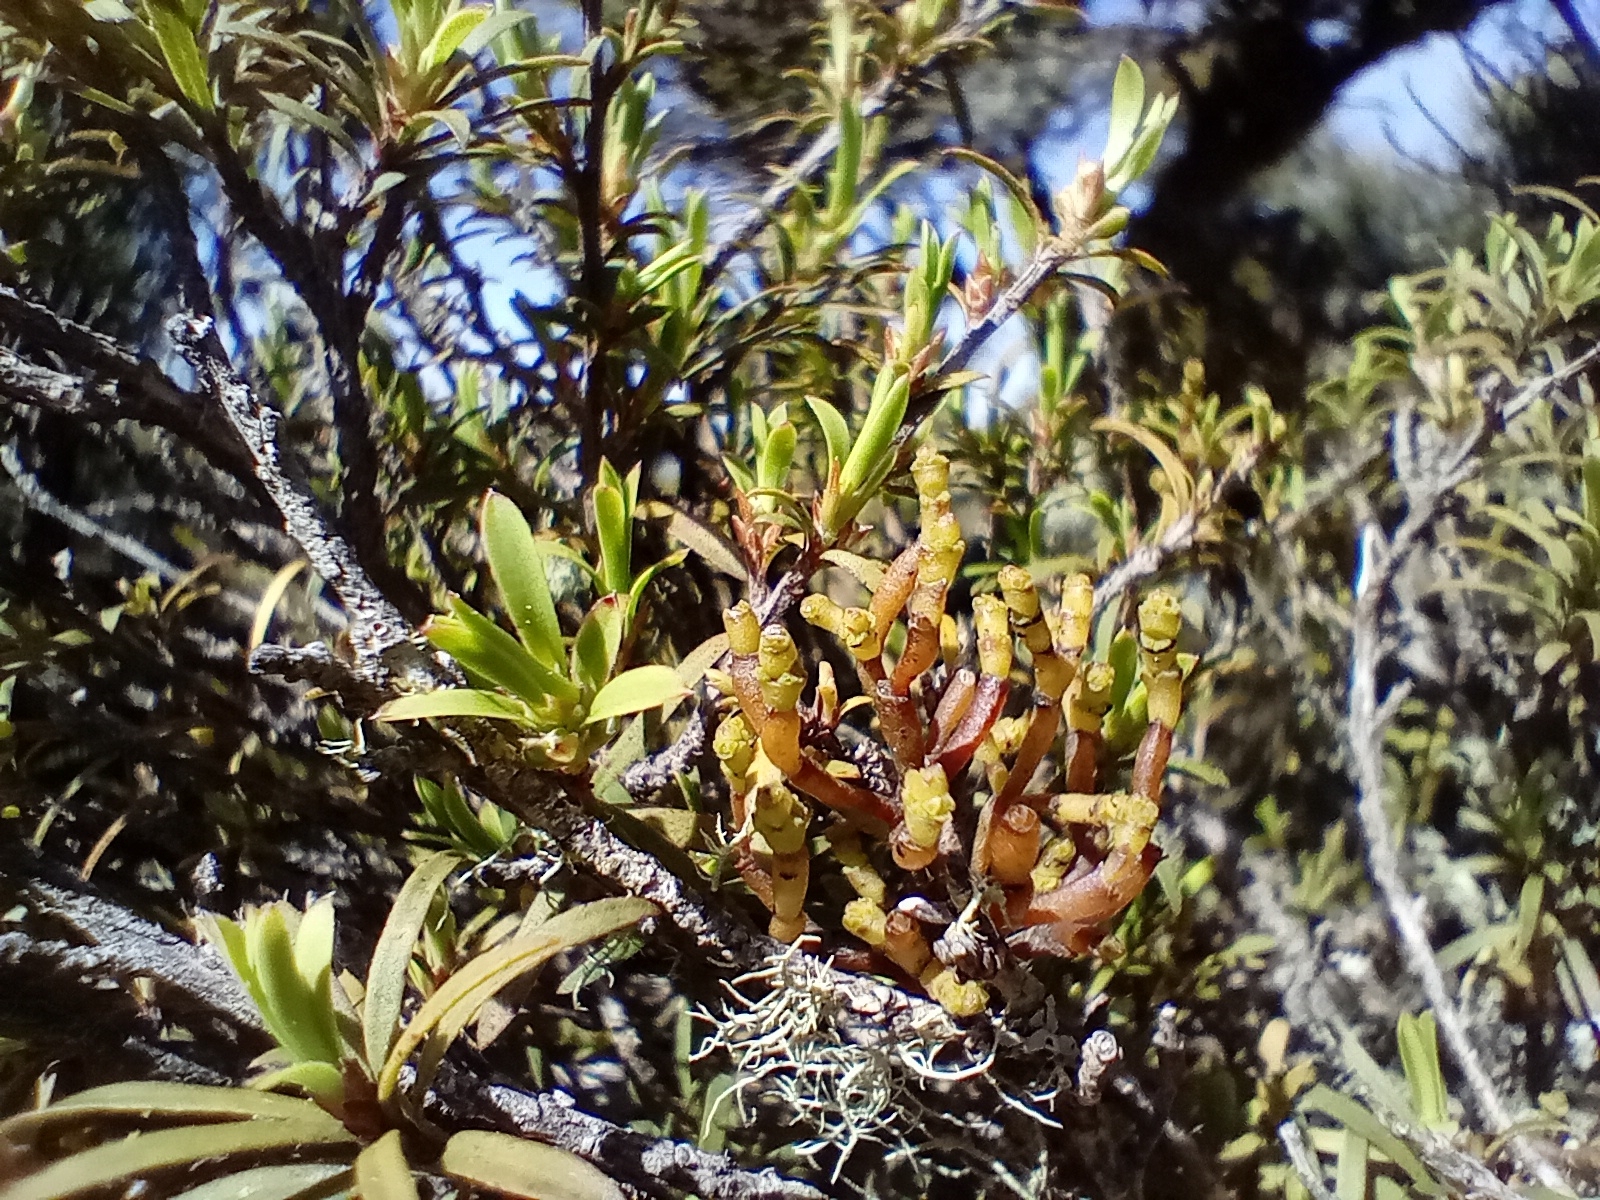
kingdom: Plantae
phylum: Tracheophyta
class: Magnoliopsida
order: Santalales
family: Viscaceae
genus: Korthalsella
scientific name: Korthalsella salicornioides
